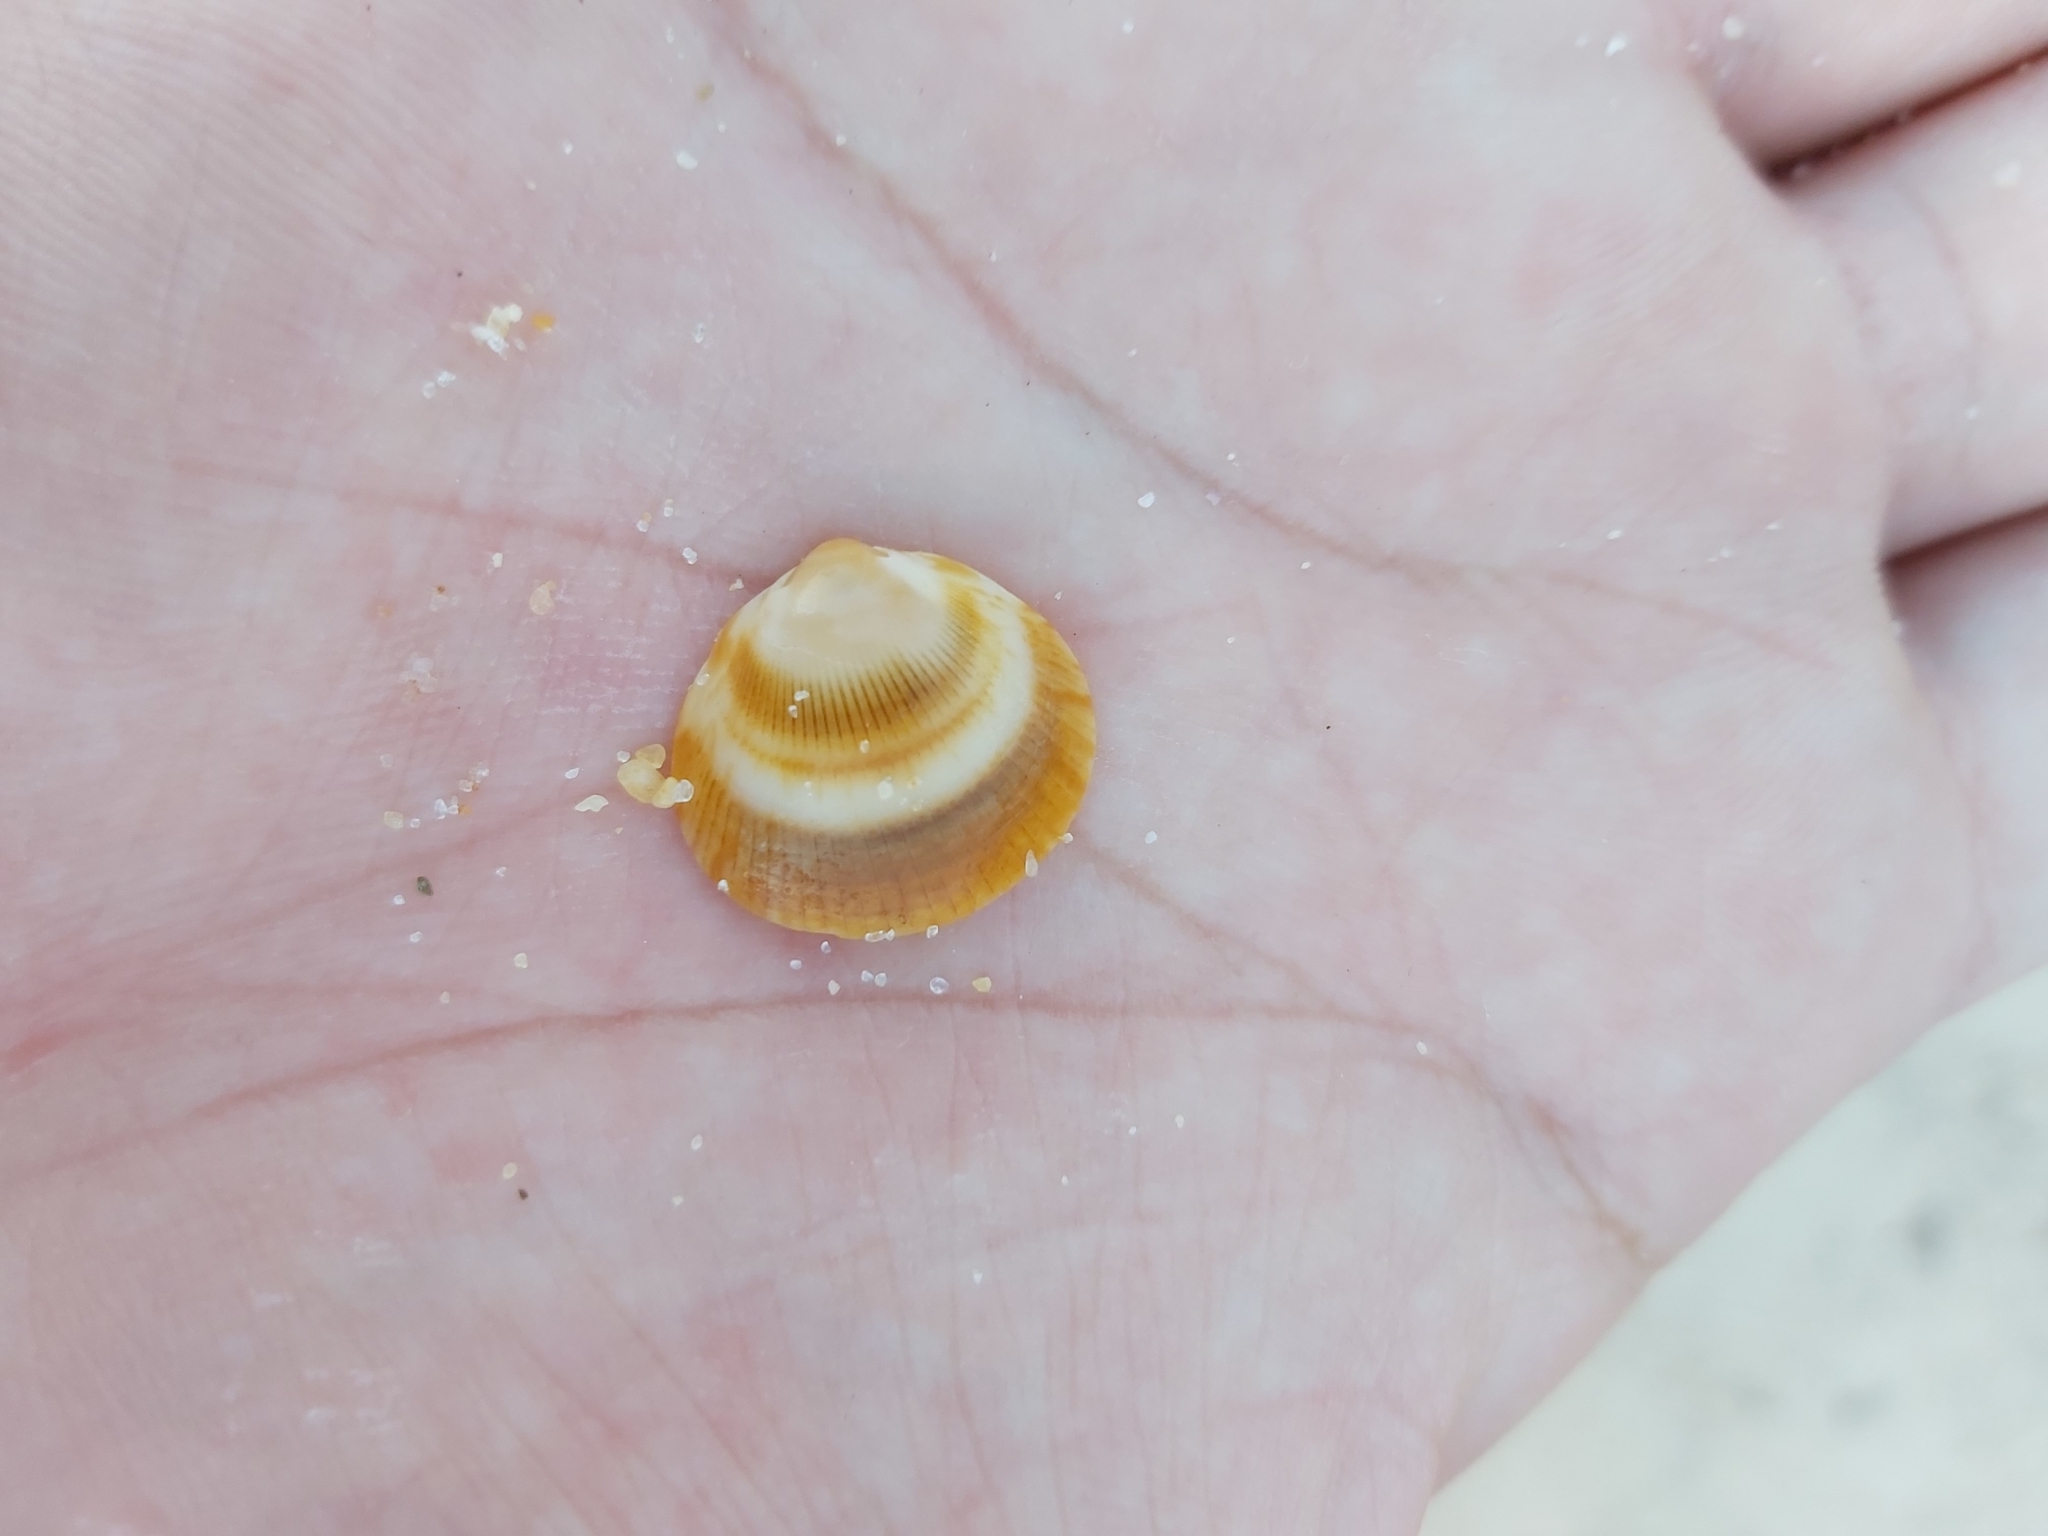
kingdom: Animalia
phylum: Mollusca
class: Bivalvia
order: Arcida
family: Glycymerididae
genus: Glycymeris
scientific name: Glycymeris grayana
